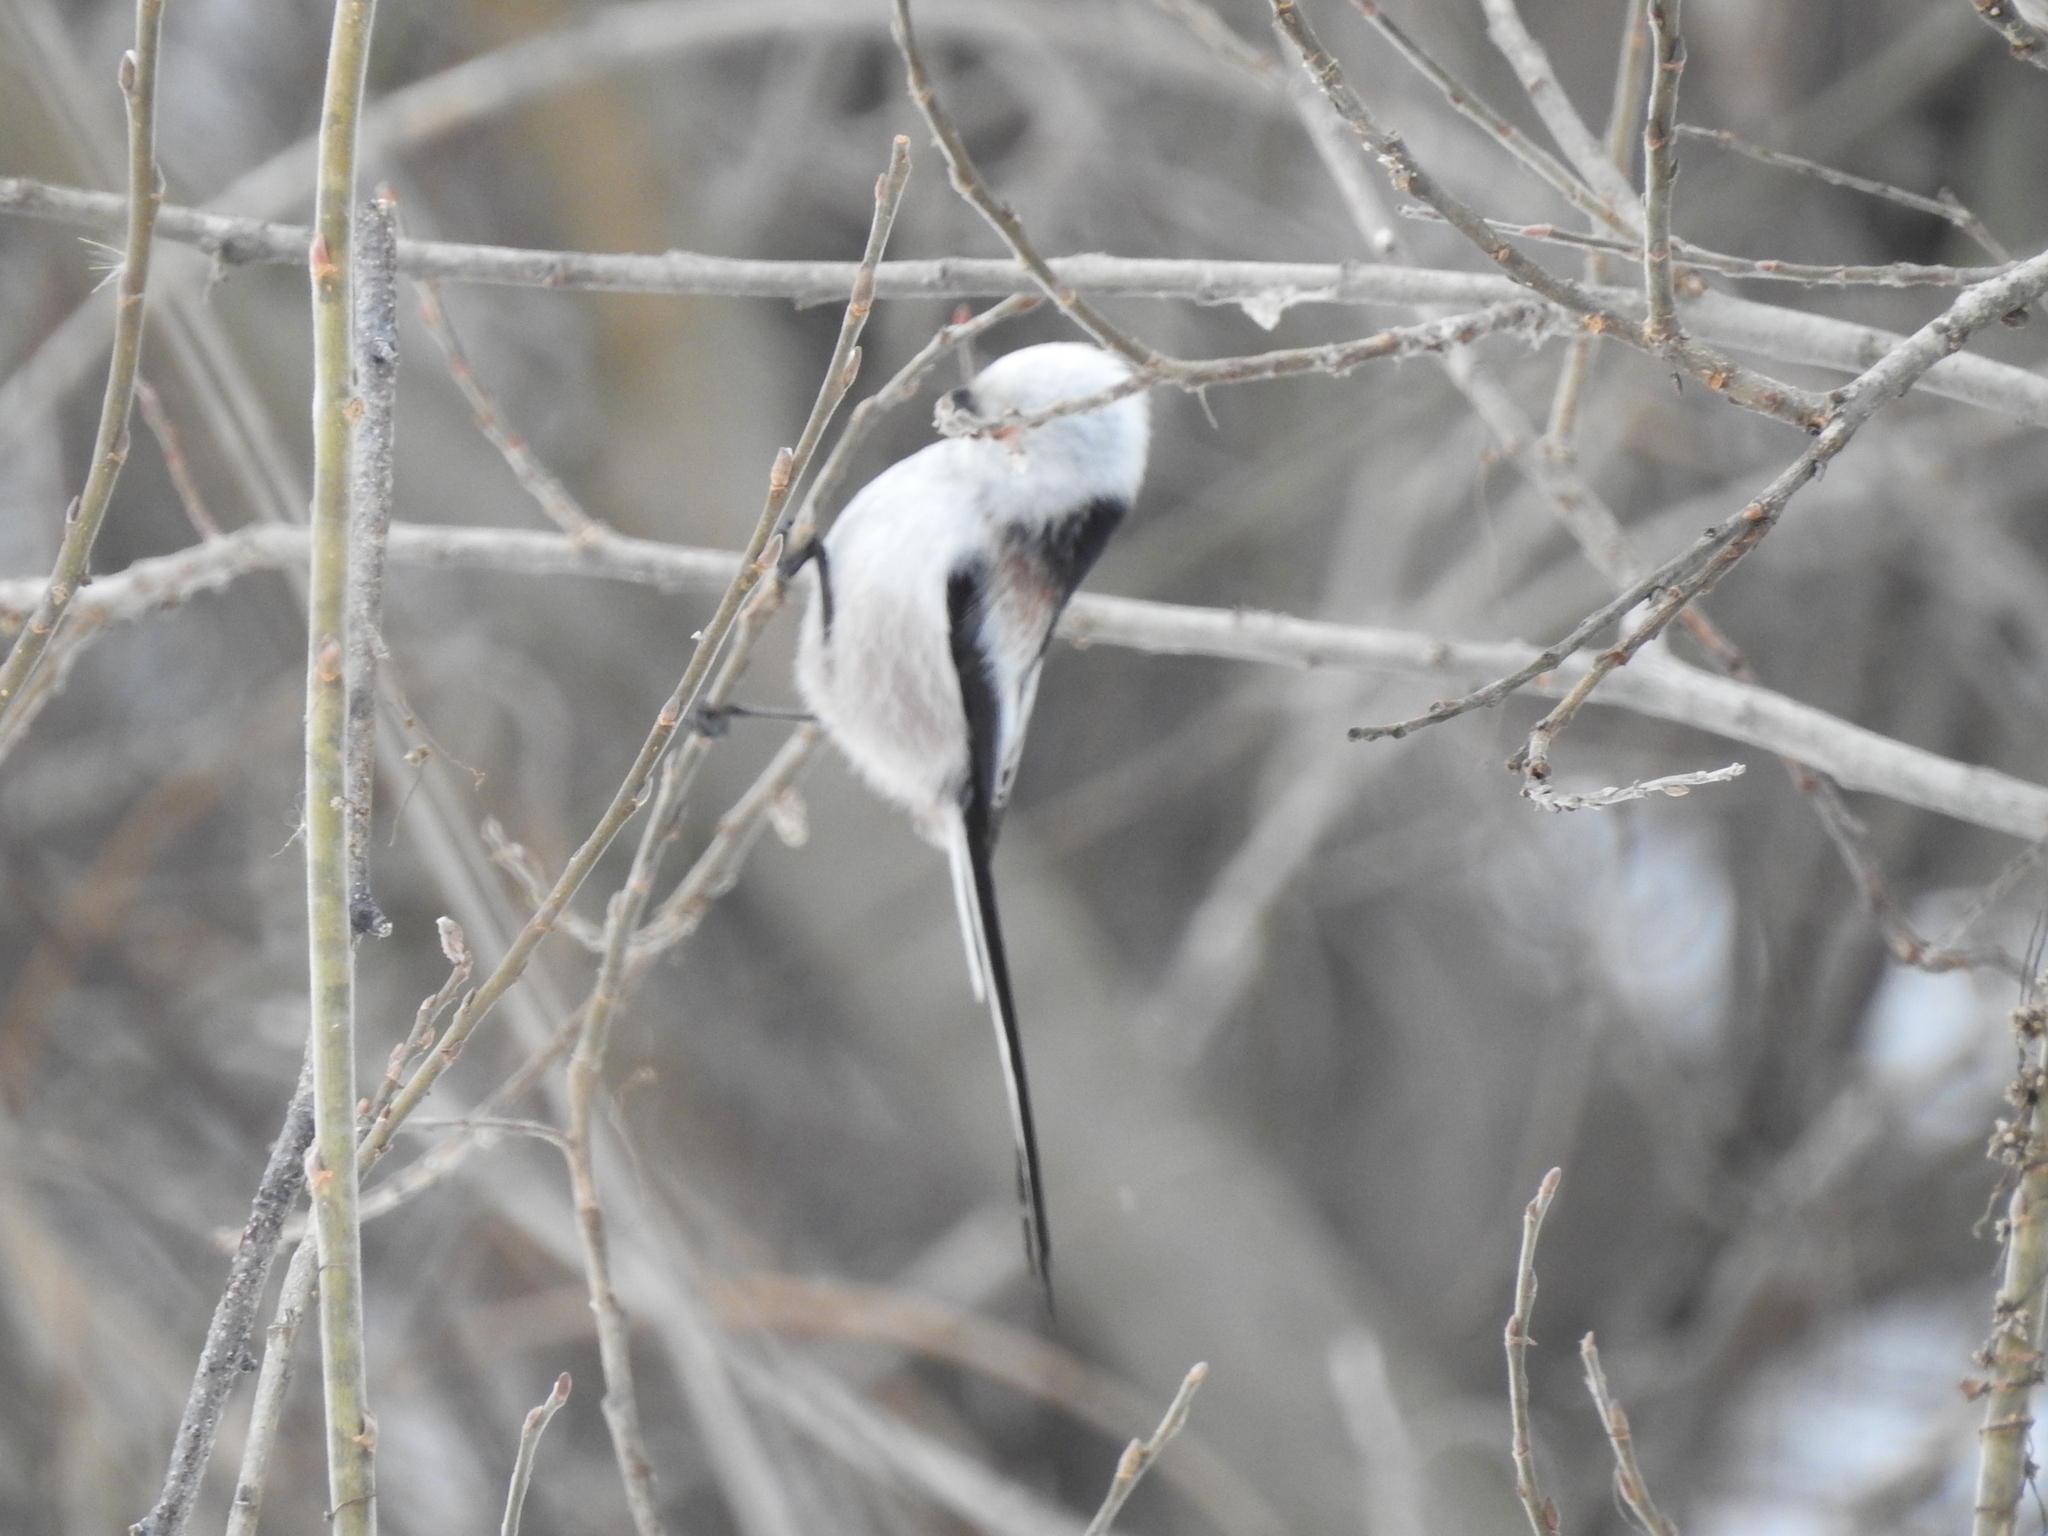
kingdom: Animalia
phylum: Chordata
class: Aves
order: Passeriformes
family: Aegithalidae
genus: Aegithalos
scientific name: Aegithalos caudatus
